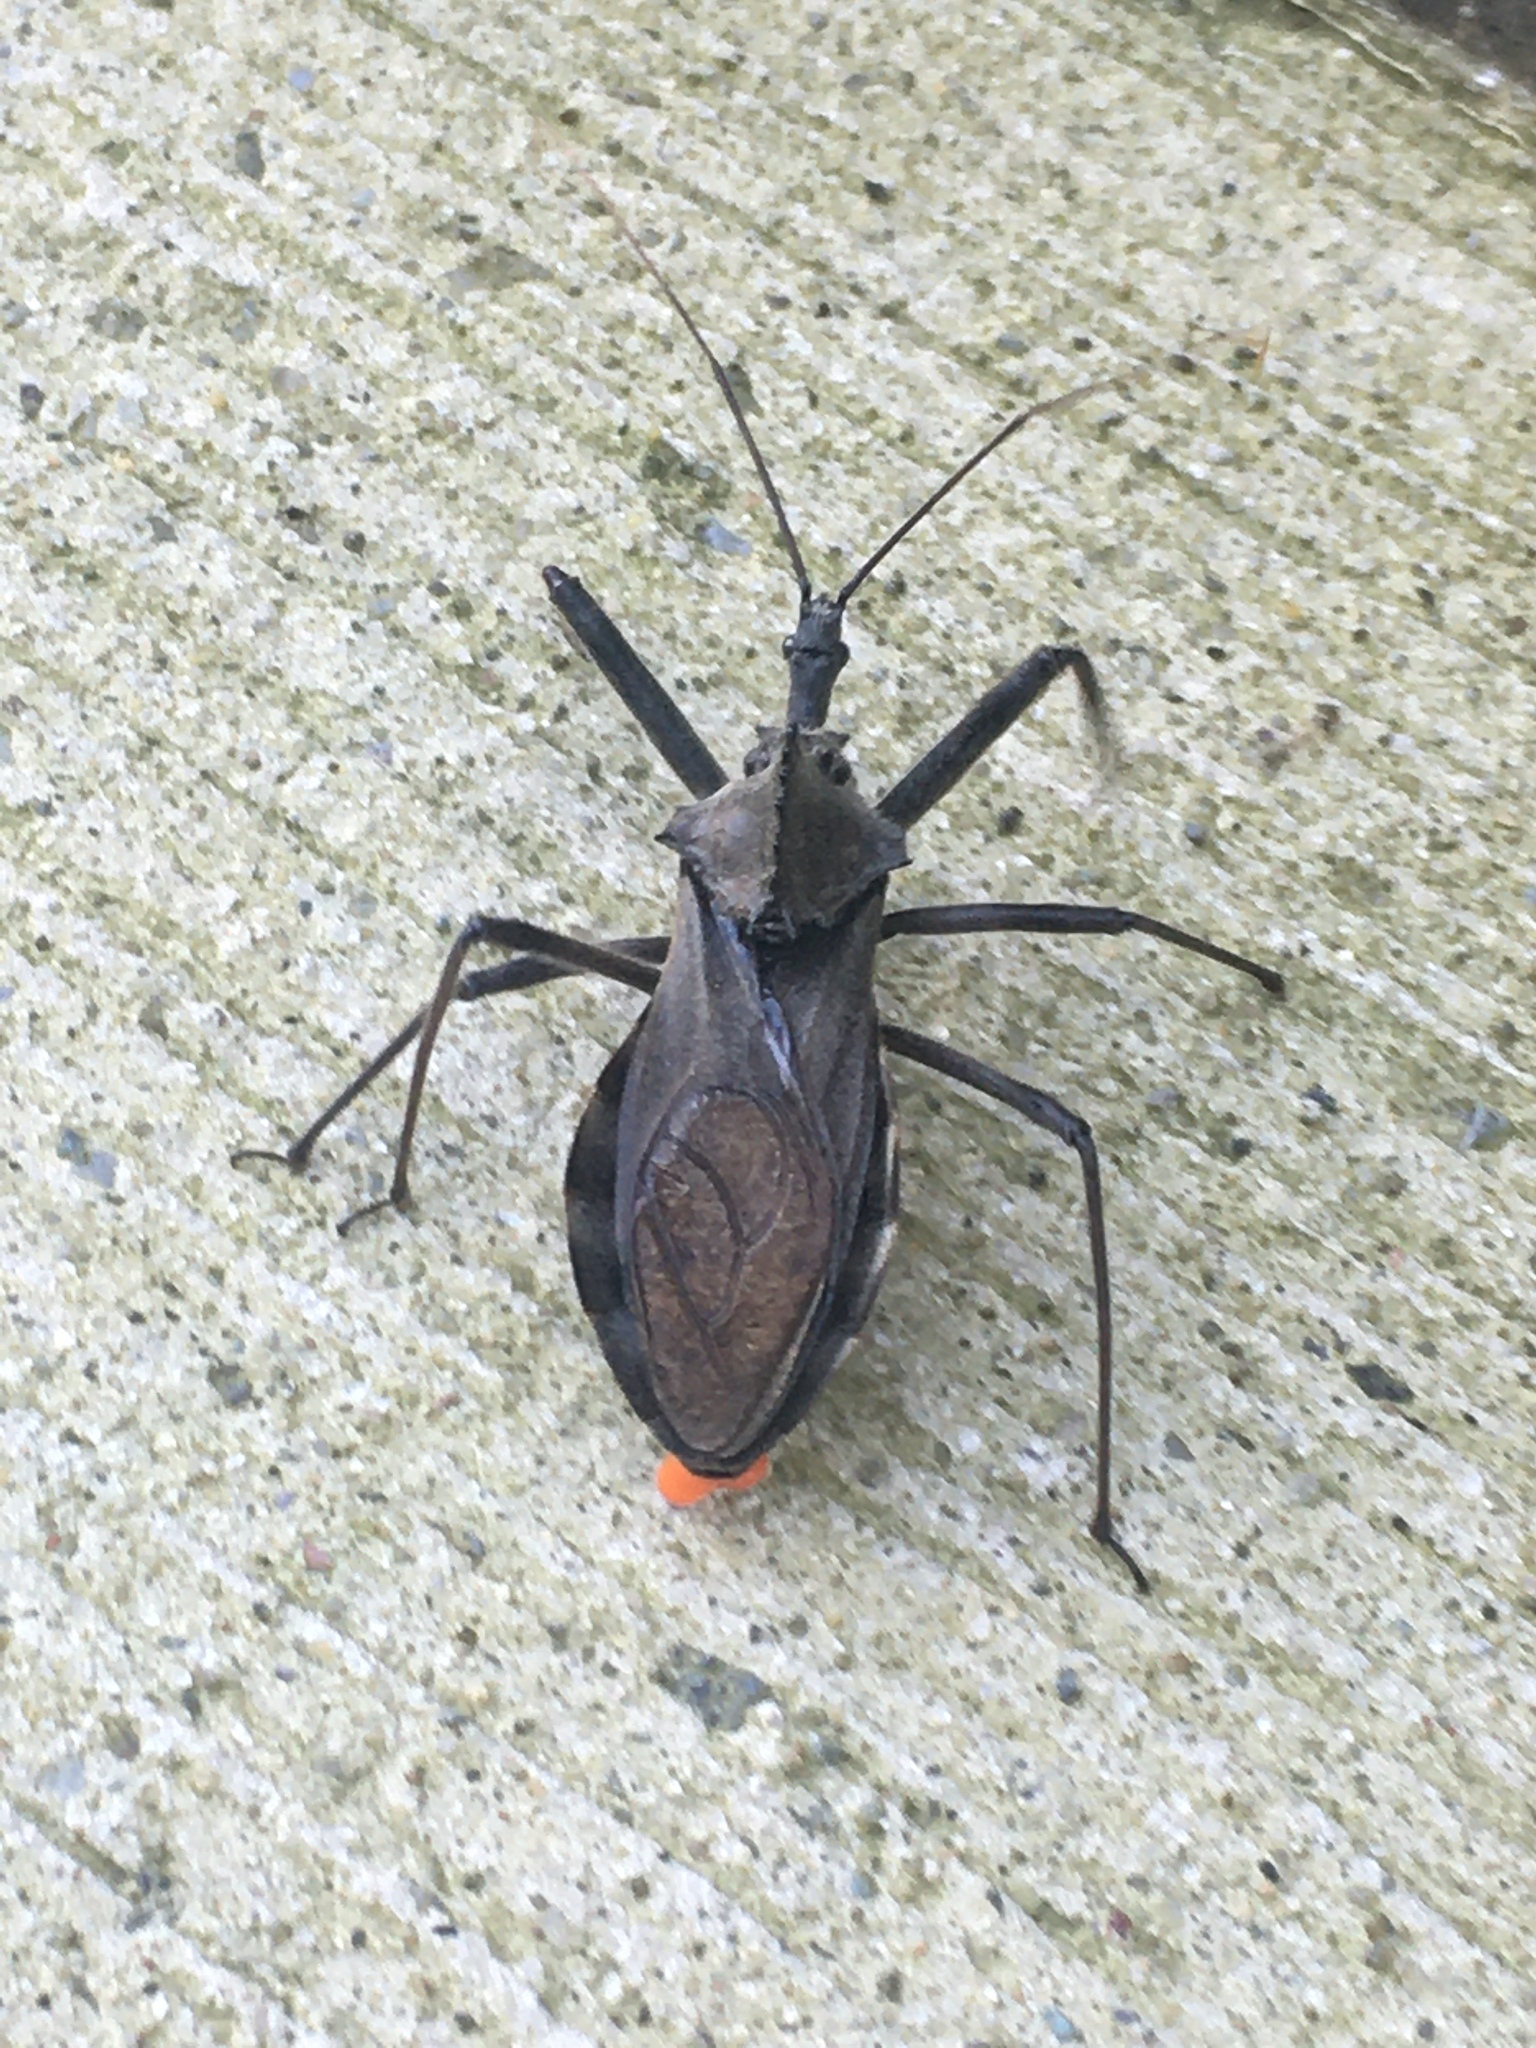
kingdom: Animalia
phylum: Arthropoda
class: Insecta
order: Hemiptera
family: Reduviidae
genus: Arilus
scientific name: Arilus cristatus
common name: North american wheel bug
